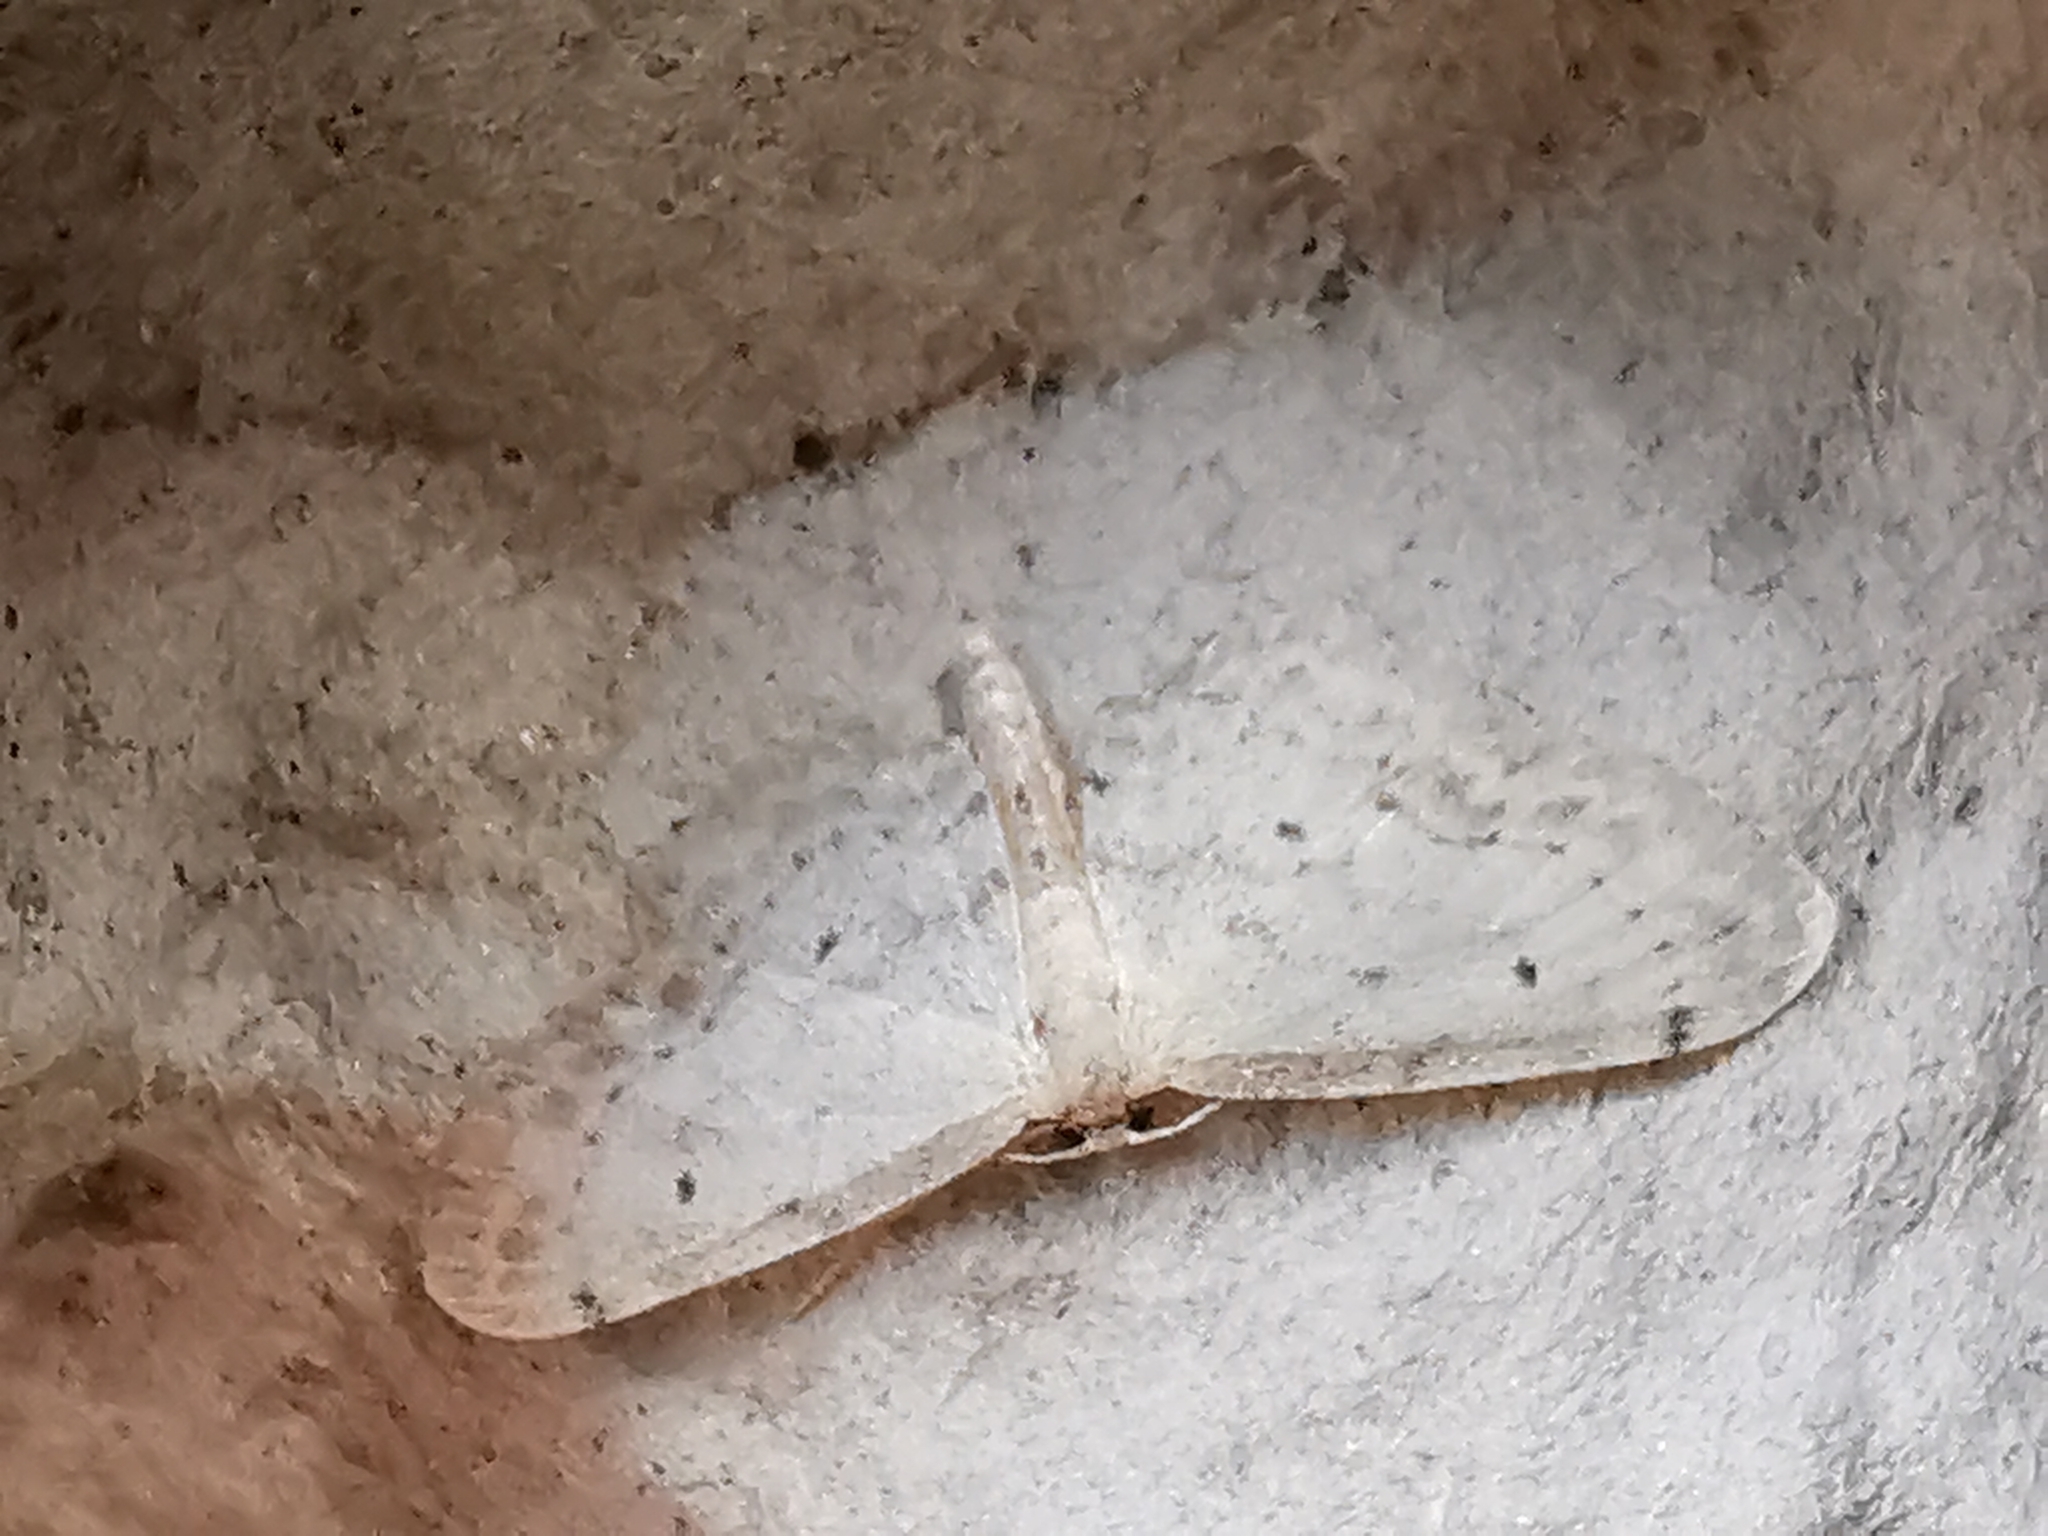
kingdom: Animalia
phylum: Arthropoda
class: Insecta
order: Lepidoptera
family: Geometridae
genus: Idaea
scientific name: Idaea dimidiata
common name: Single-dotted wave
